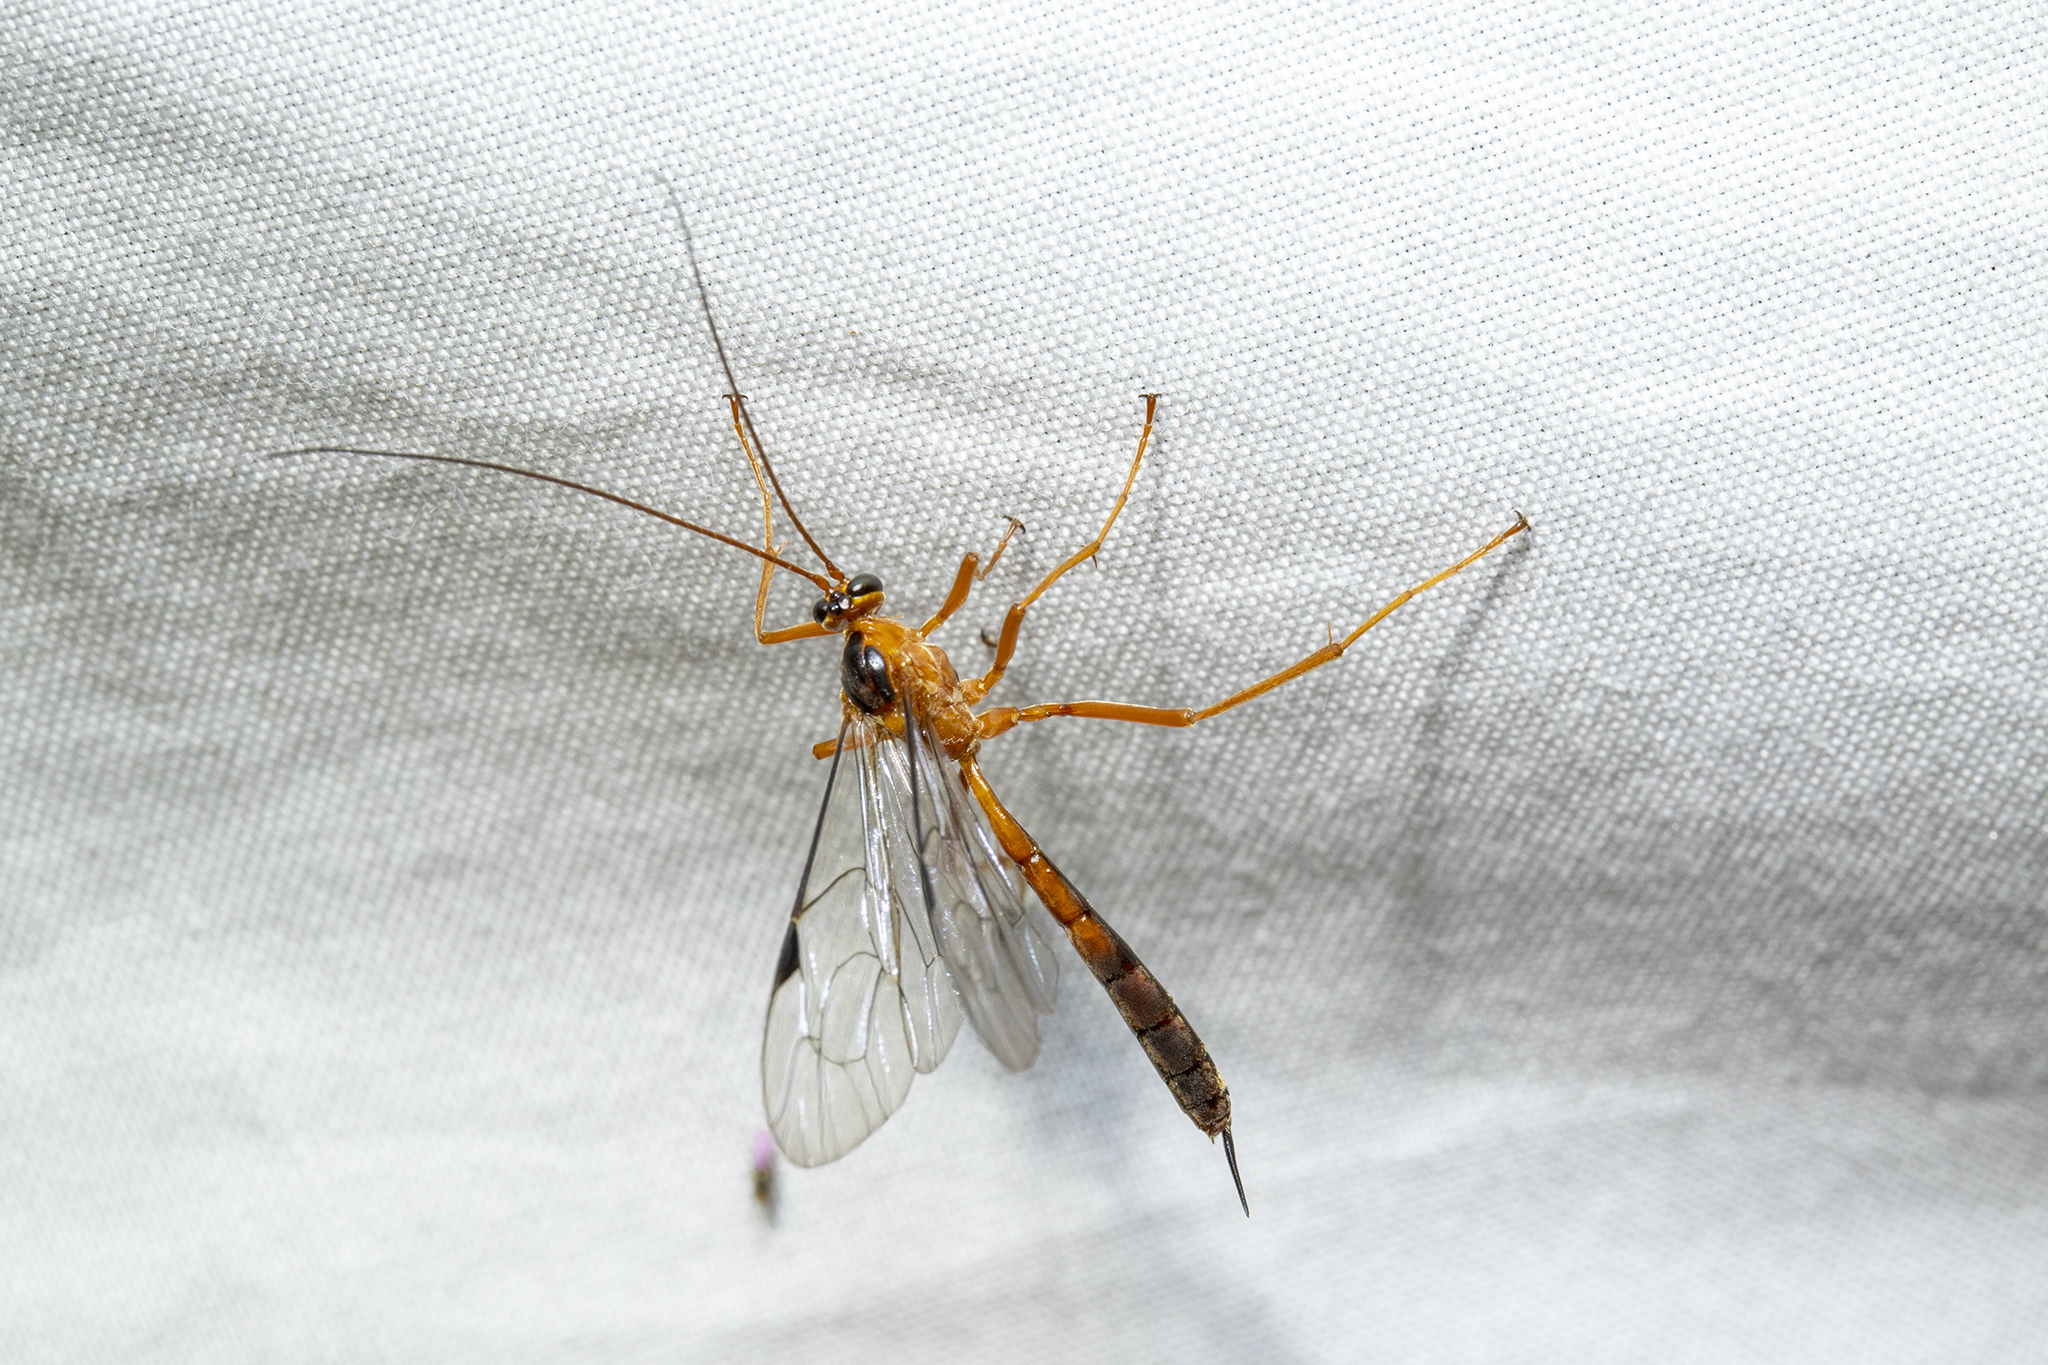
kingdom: Animalia
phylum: Arthropoda
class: Insecta
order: Hymenoptera
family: Ichneumonidae
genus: Netelia
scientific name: Netelia ephippiata
